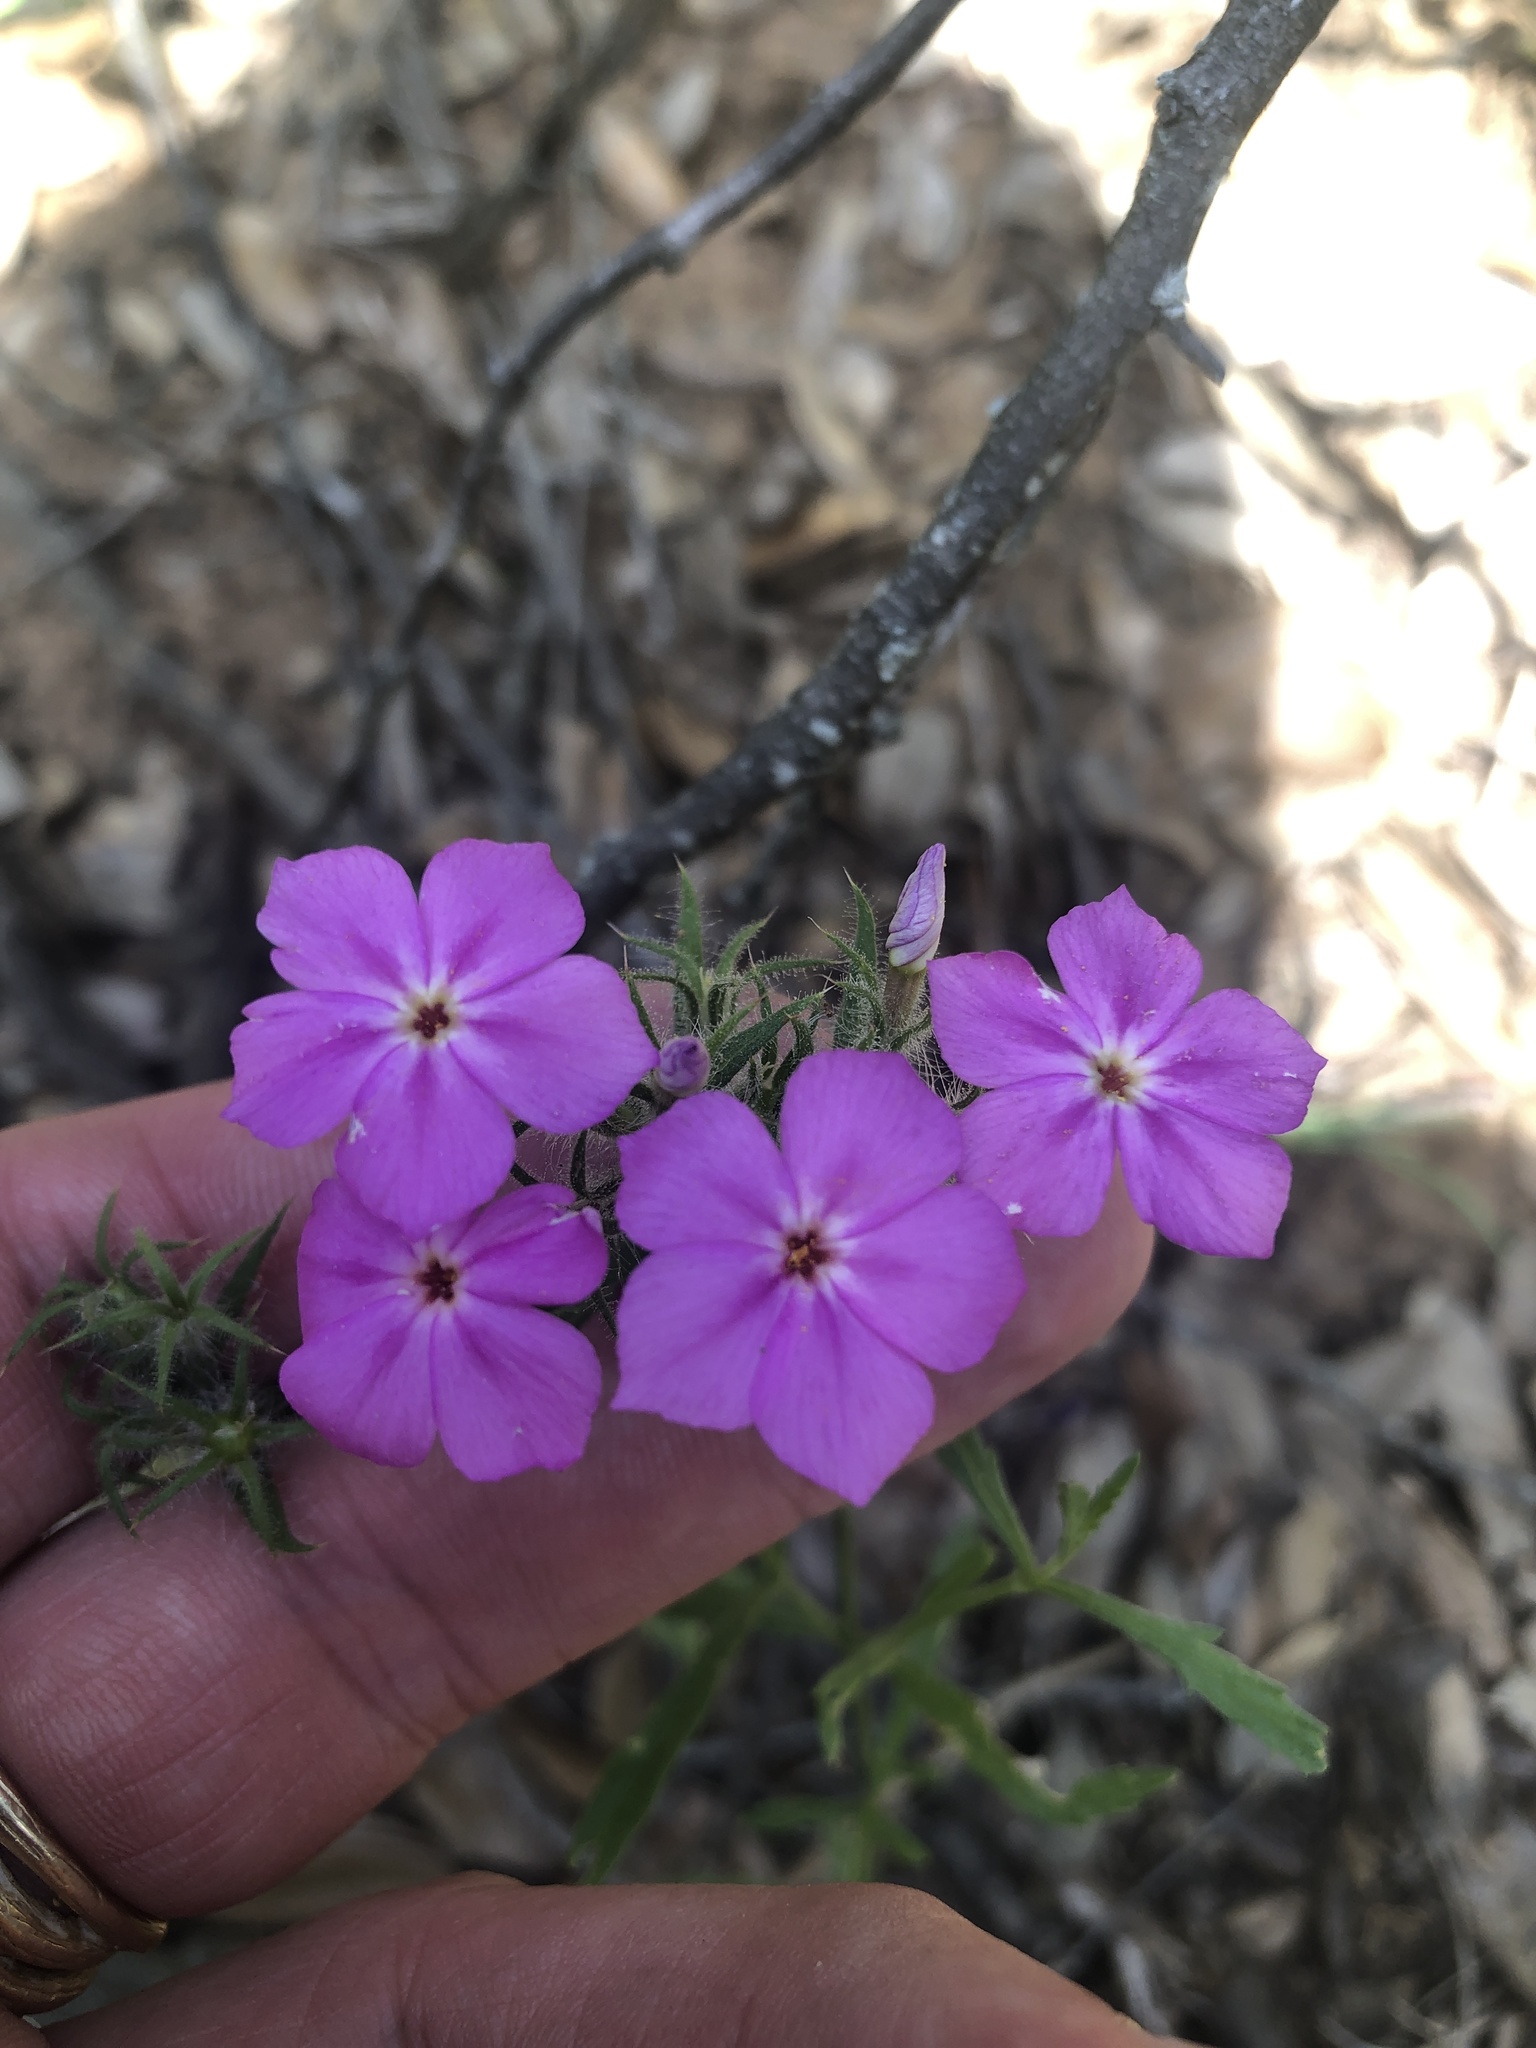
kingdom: Plantae
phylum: Tracheophyta
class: Magnoliopsida
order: Ericales
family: Polemoniaceae
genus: Phlox
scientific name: Phlox drummondii
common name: Drummond's phlox
